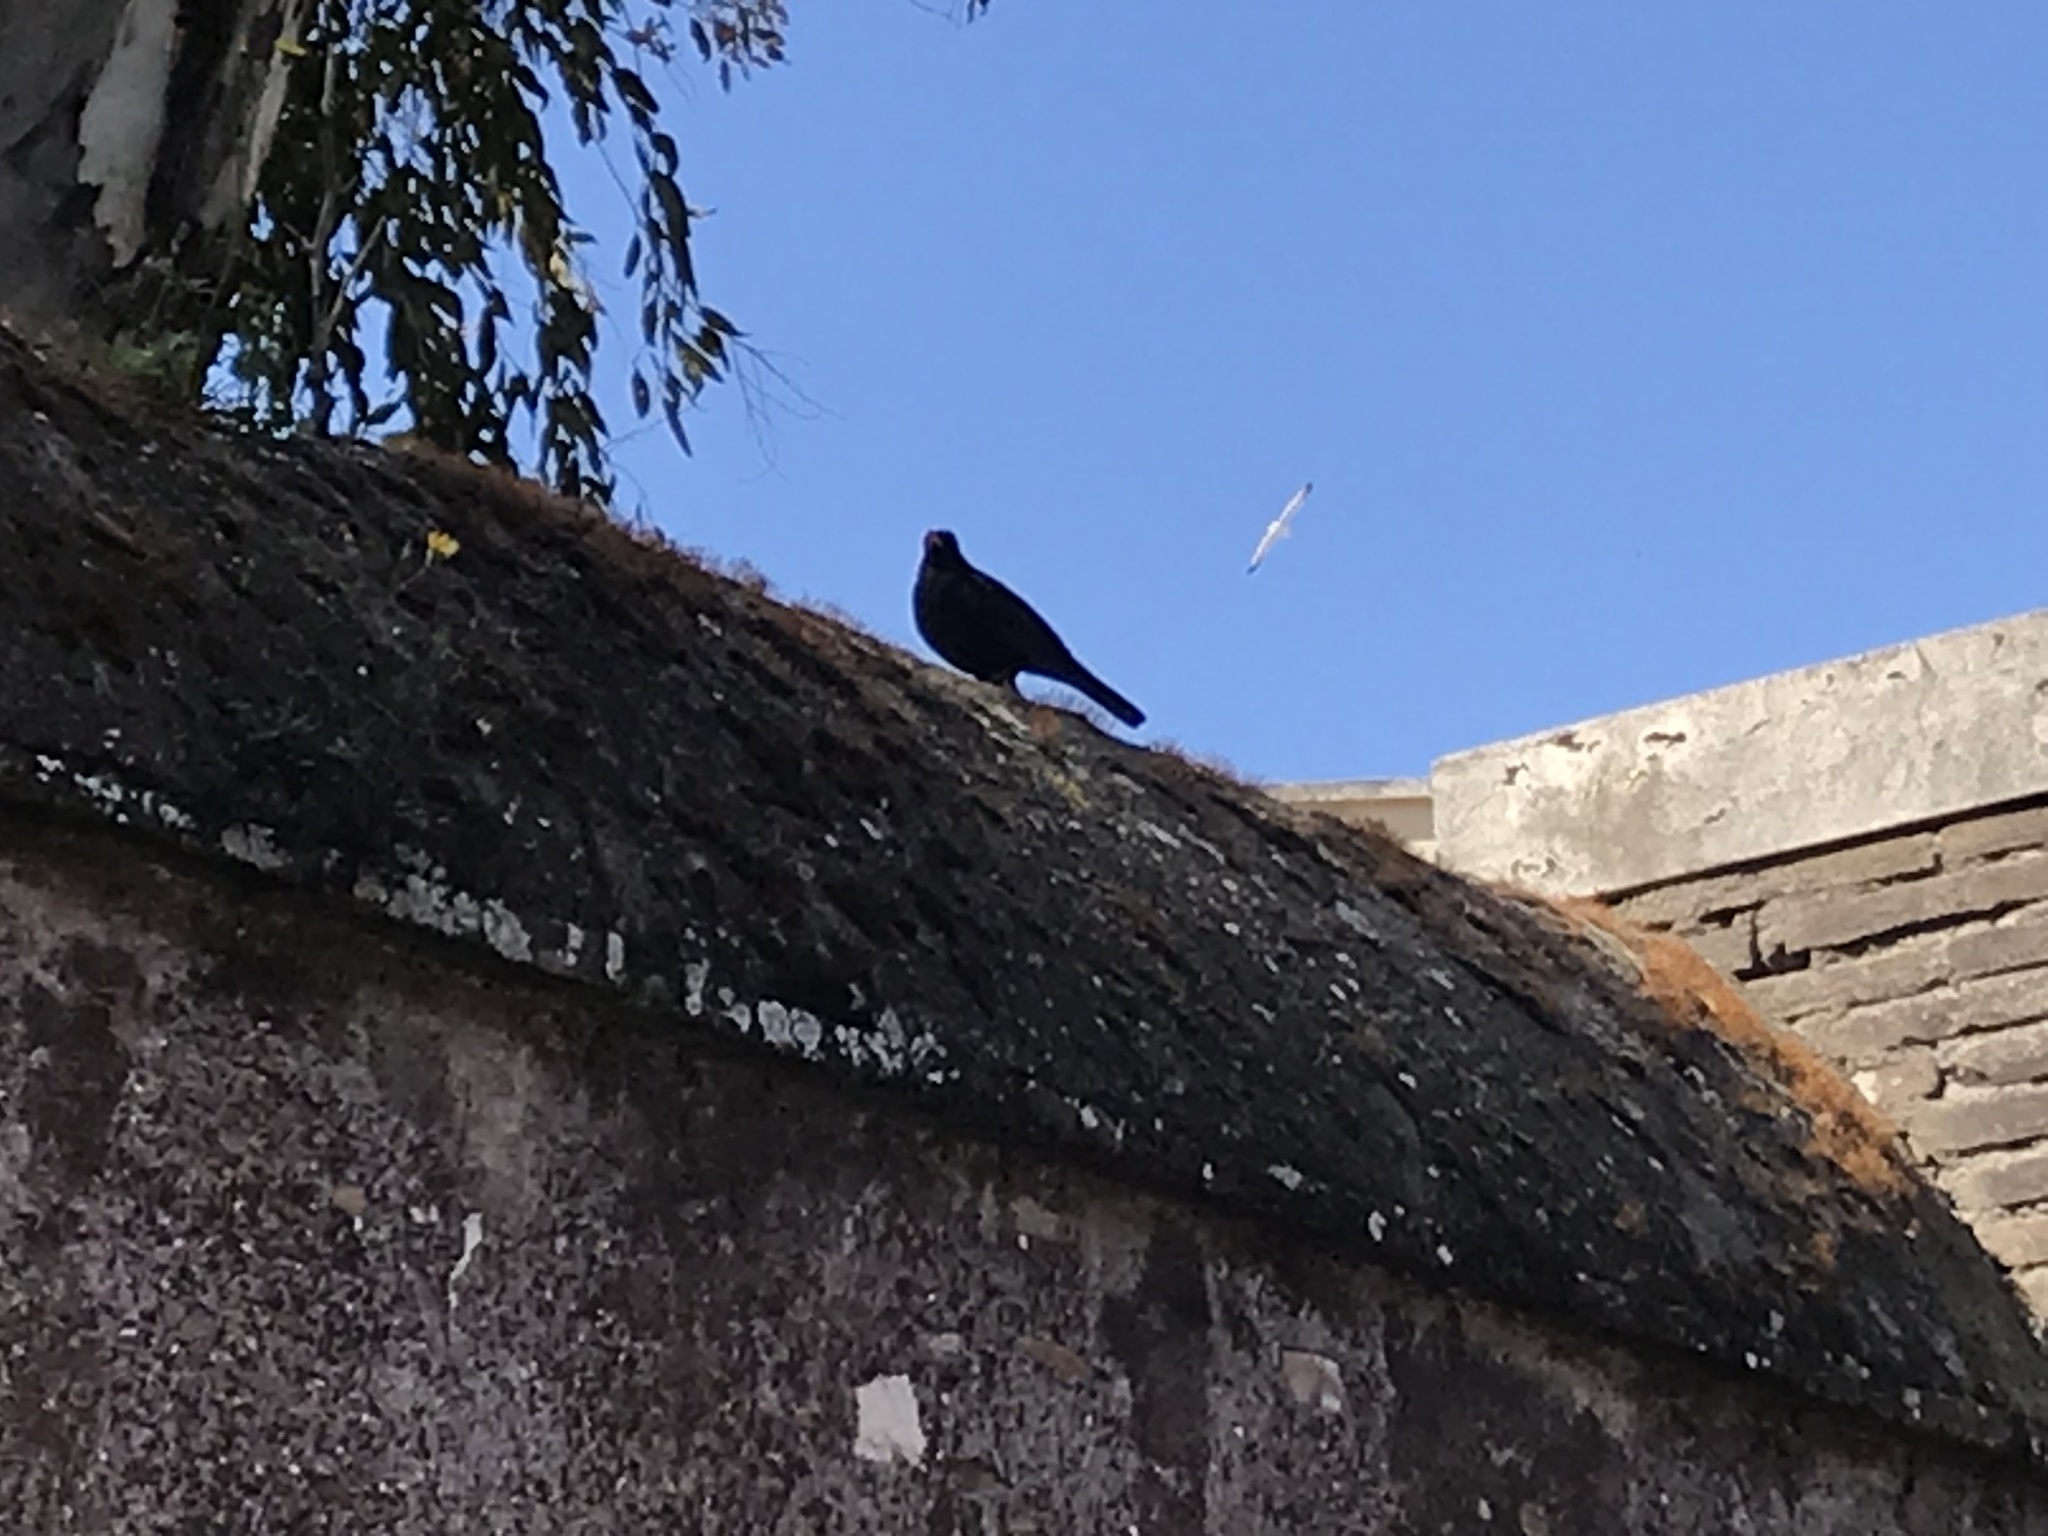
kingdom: Animalia
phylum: Chordata
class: Aves
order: Passeriformes
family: Turdidae
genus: Turdus
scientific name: Turdus merula
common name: Common blackbird
